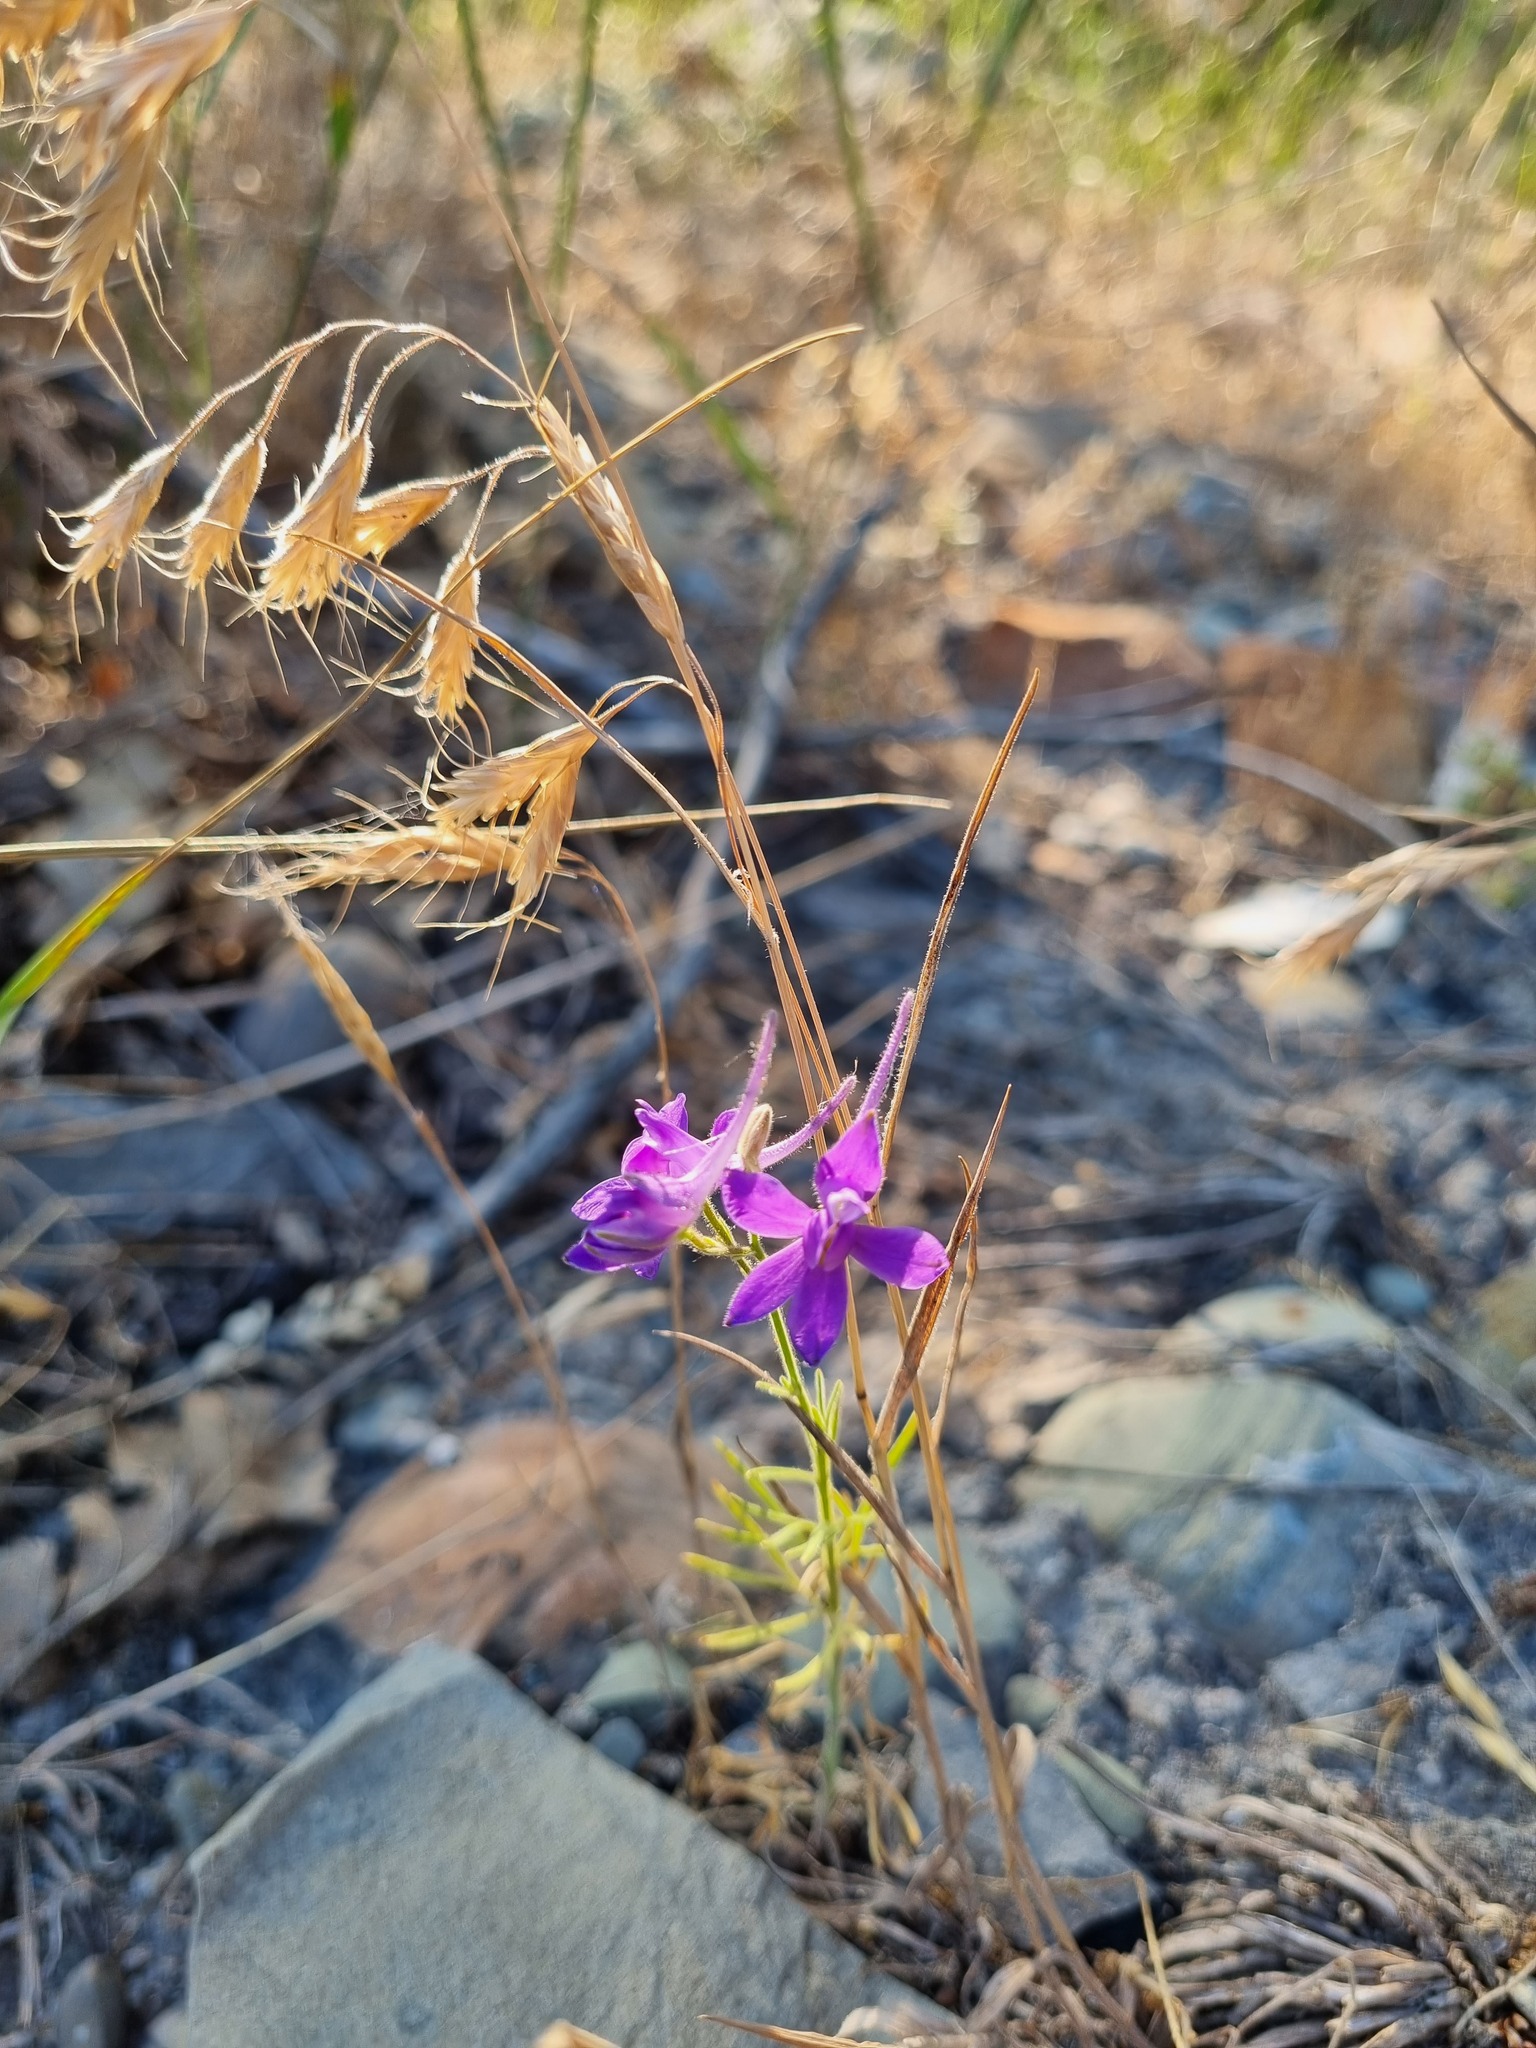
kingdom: Plantae
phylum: Tracheophyta
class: Magnoliopsida
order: Ranunculales
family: Ranunculaceae
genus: Delphinium
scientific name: Delphinium consolida
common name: Branching larkspur
